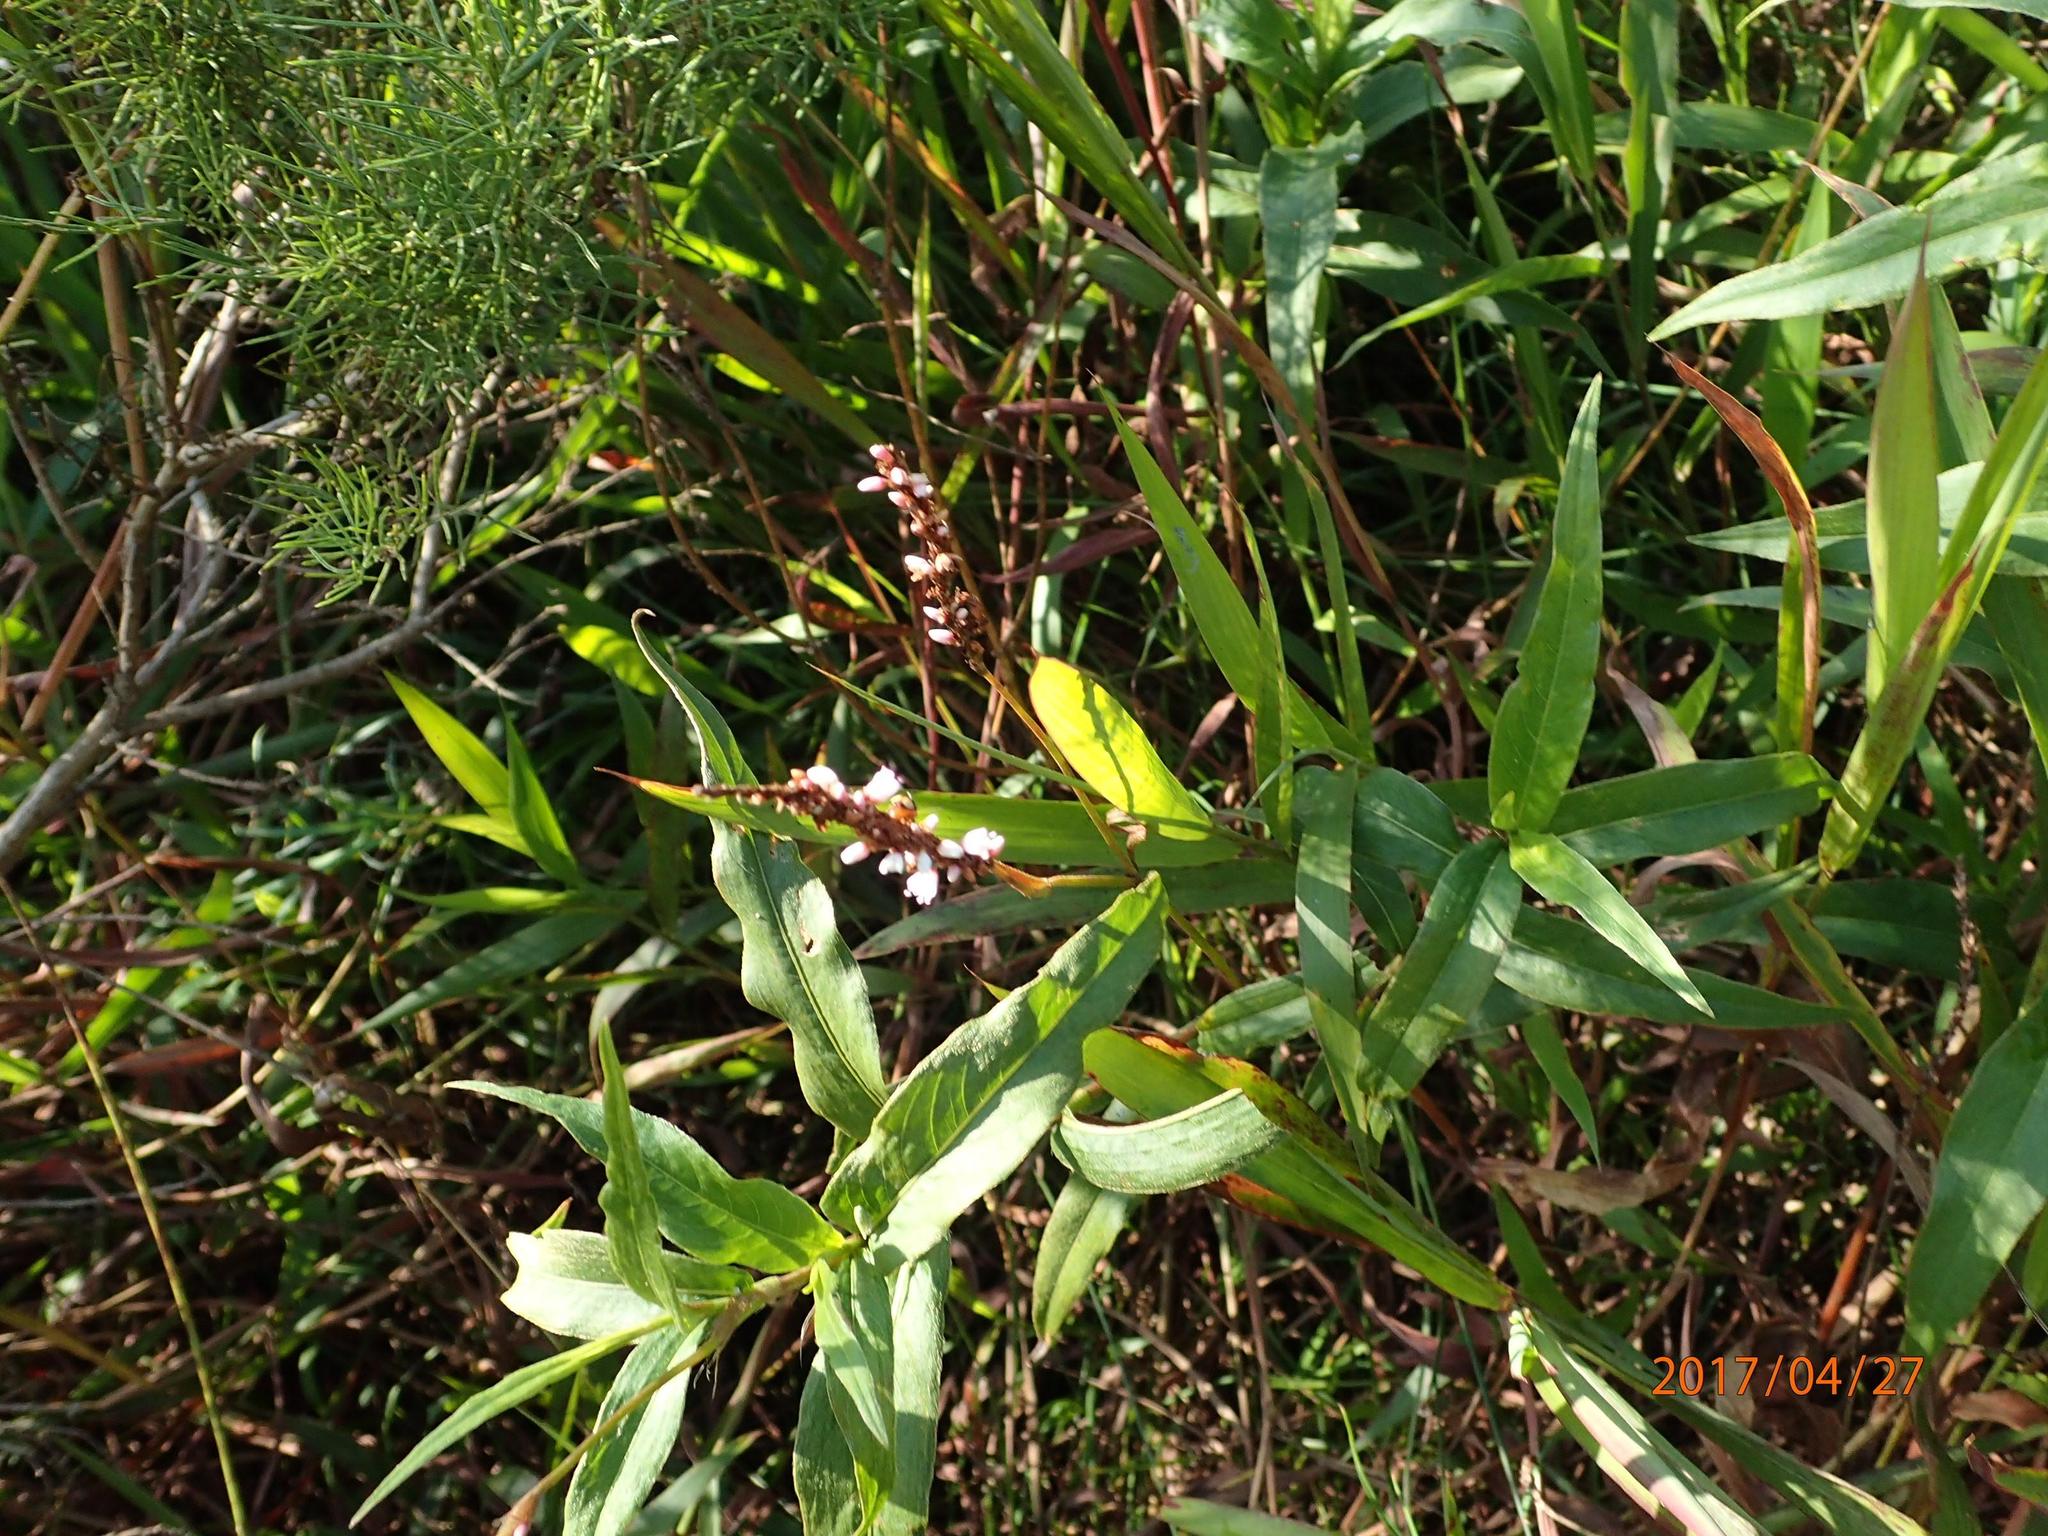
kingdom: Plantae
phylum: Tracheophyta
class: Magnoliopsida
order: Caryophyllales
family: Polygonaceae
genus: Persicaria
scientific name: Persicaria madagascariensis
